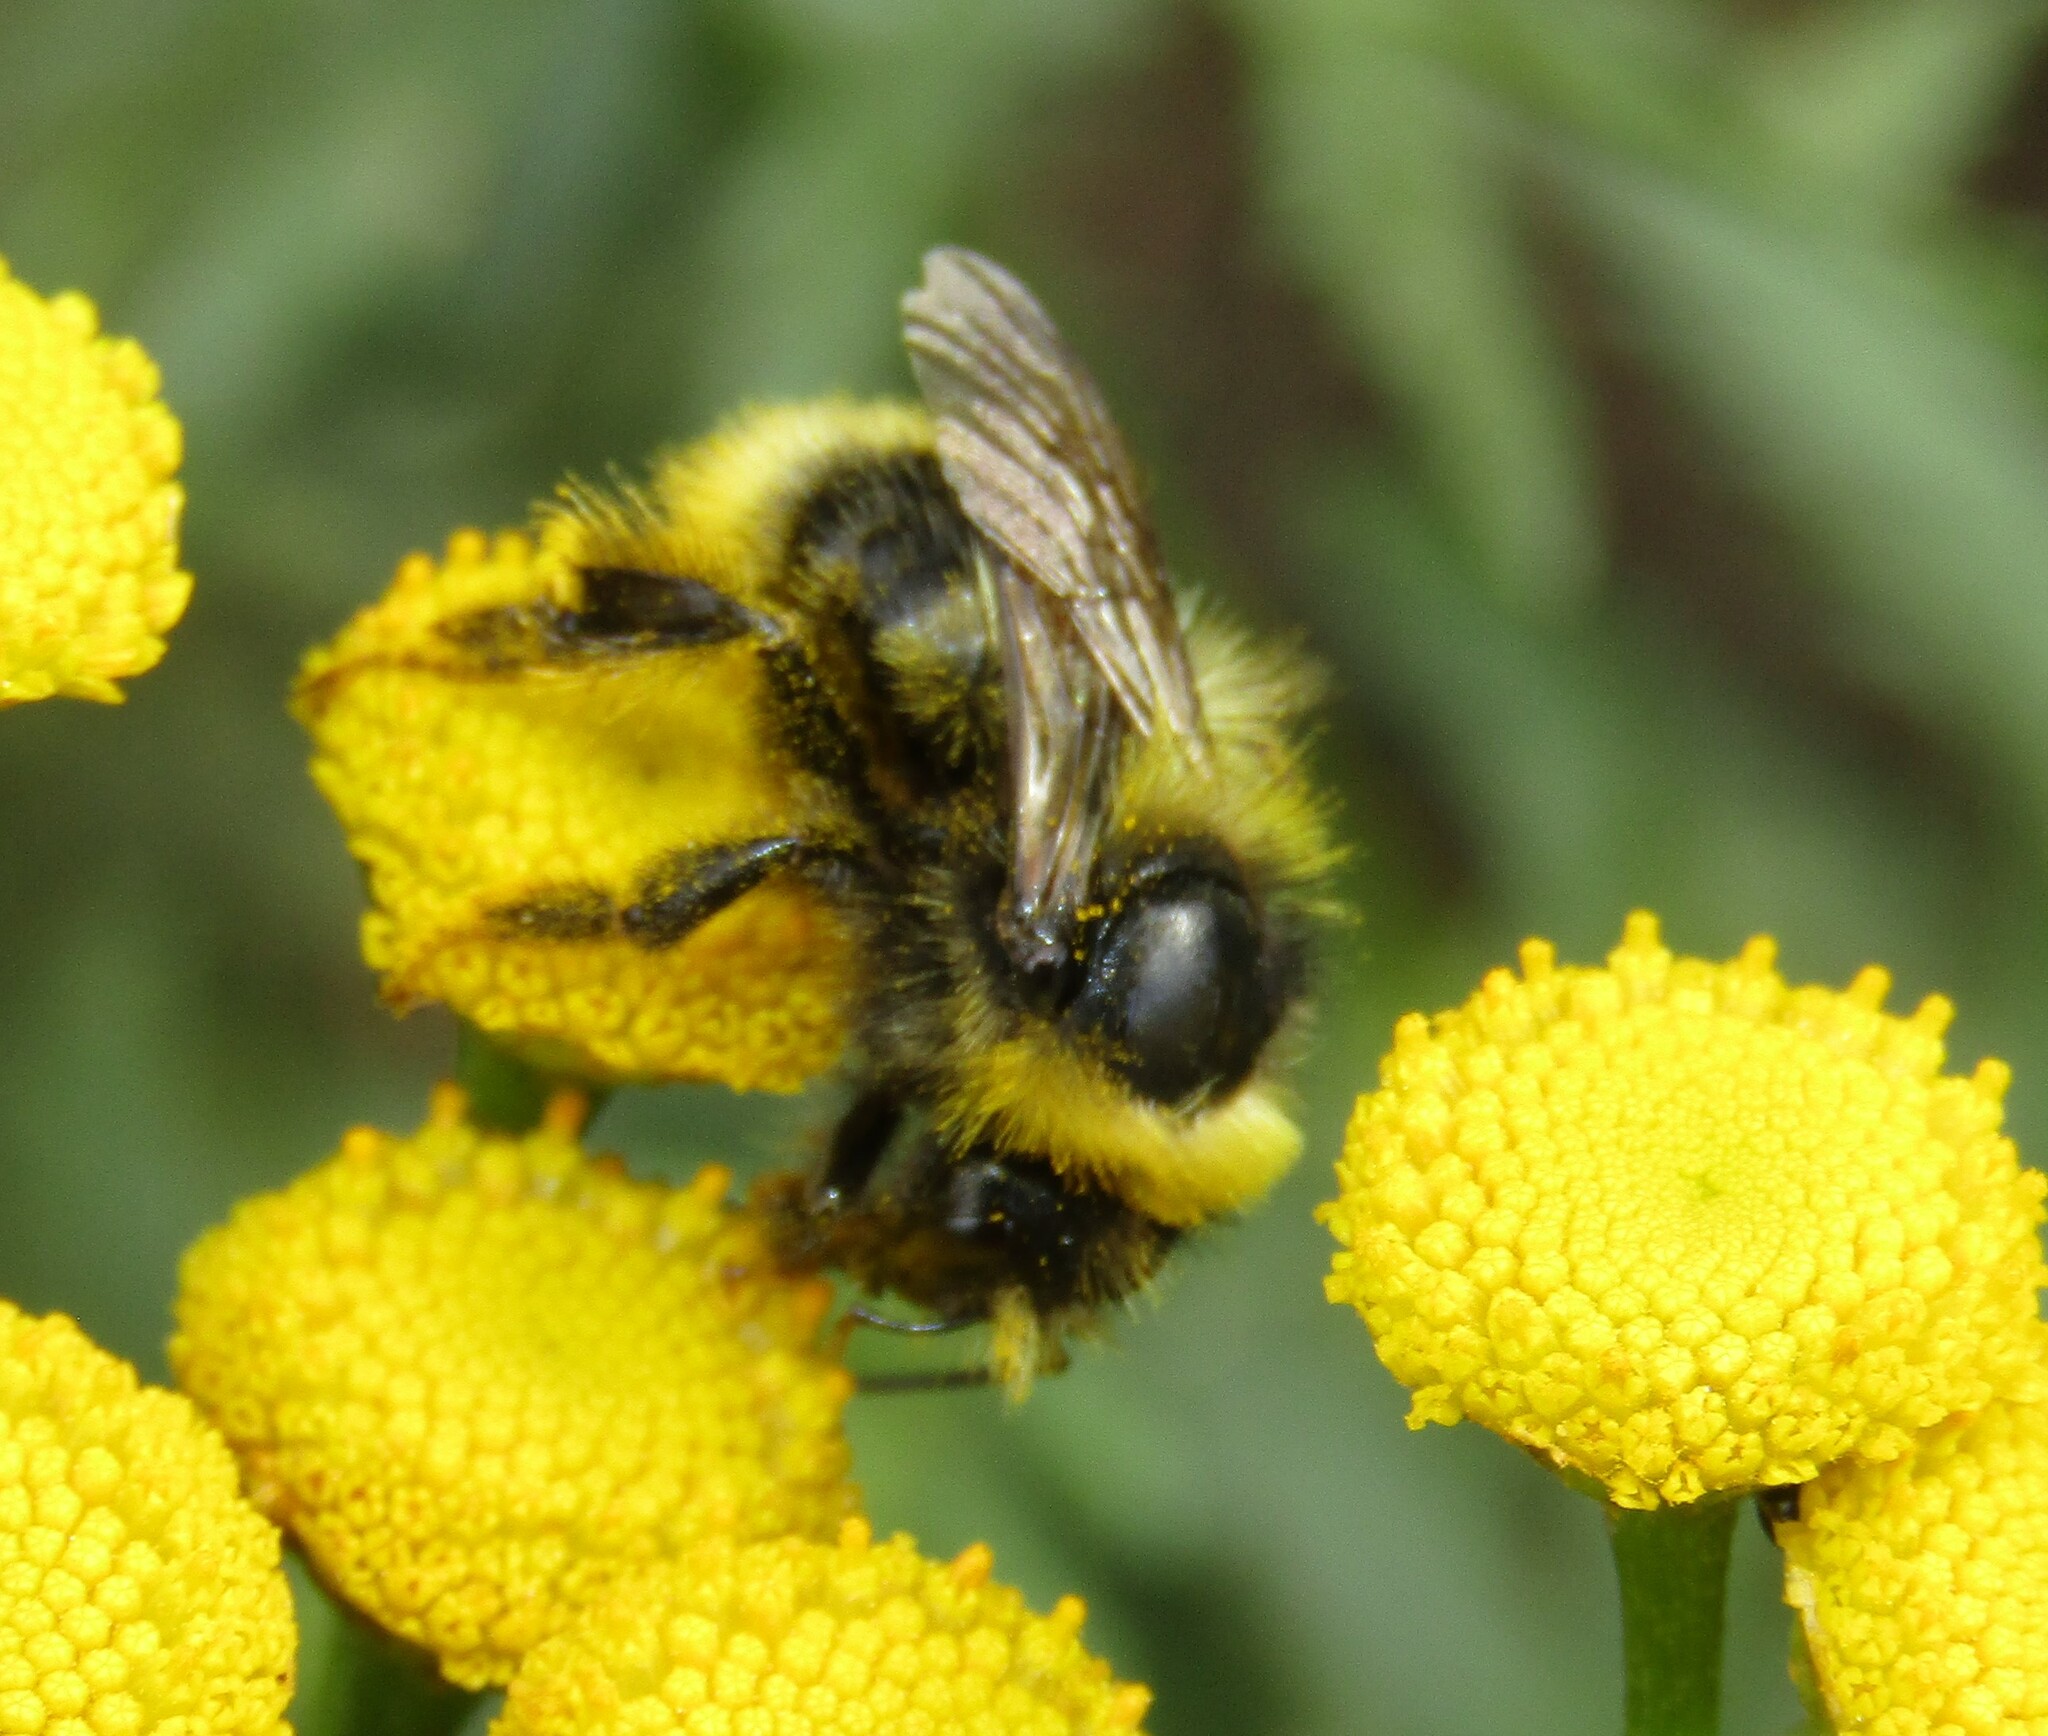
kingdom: Animalia
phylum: Arthropoda
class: Insecta
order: Hymenoptera
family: Apidae
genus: Bombus
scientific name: Bombus semenoviellus
